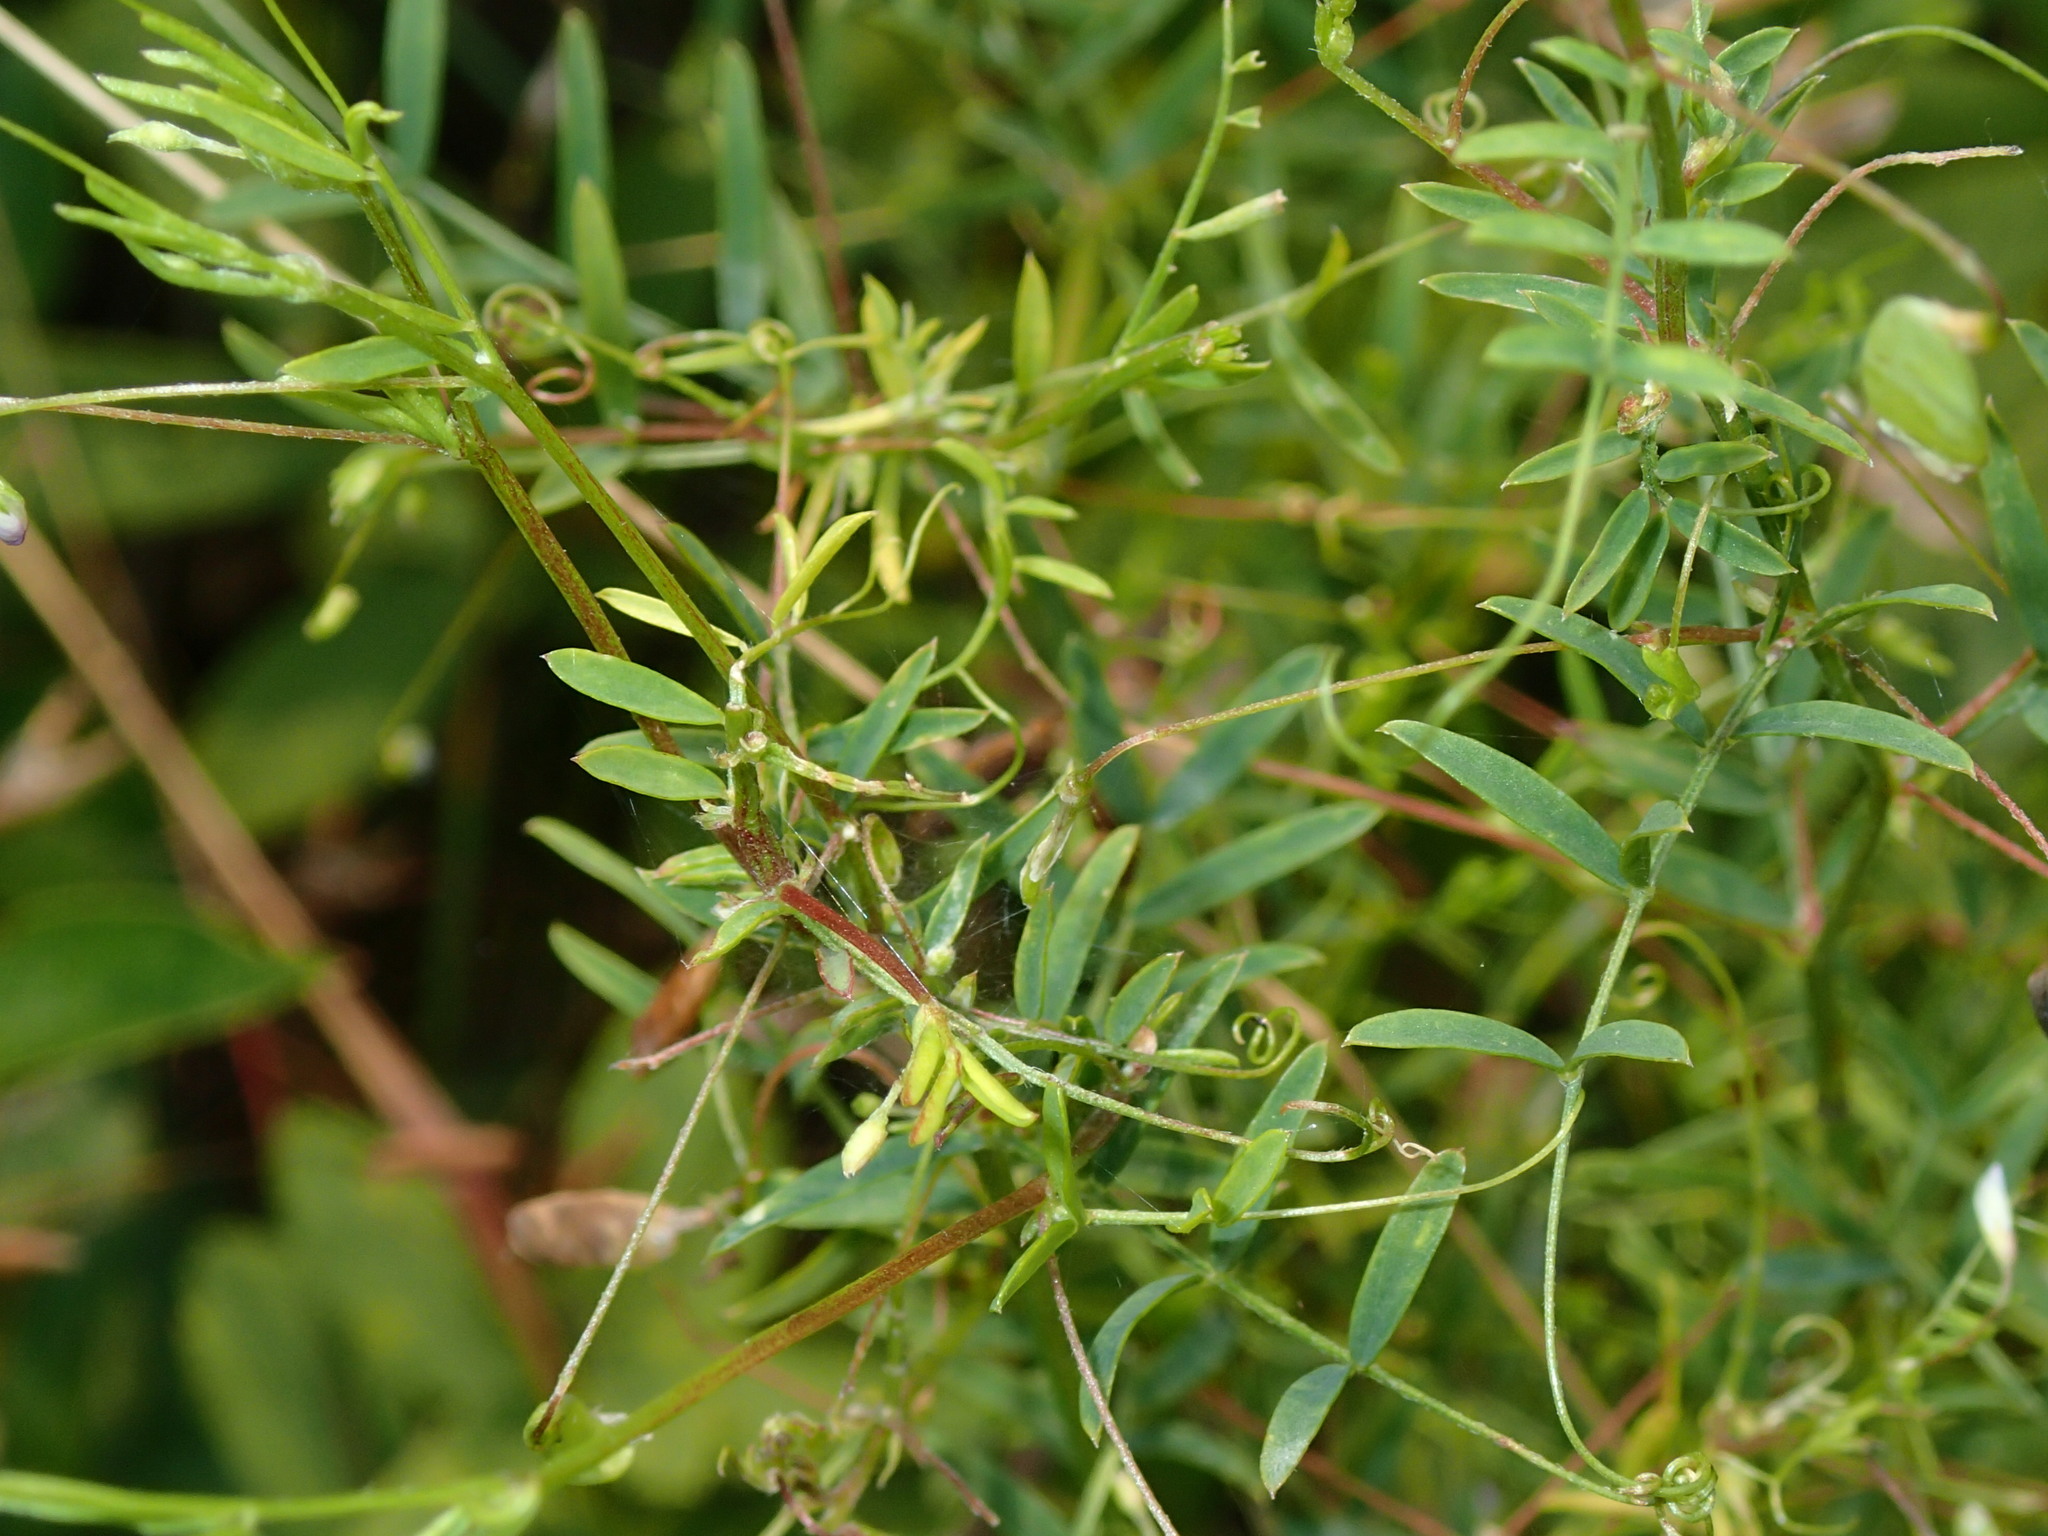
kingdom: Plantae
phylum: Tracheophyta
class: Magnoliopsida
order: Fabales
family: Fabaceae
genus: Vicia
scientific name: Vicia tetrasperma
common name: Smooth tare
